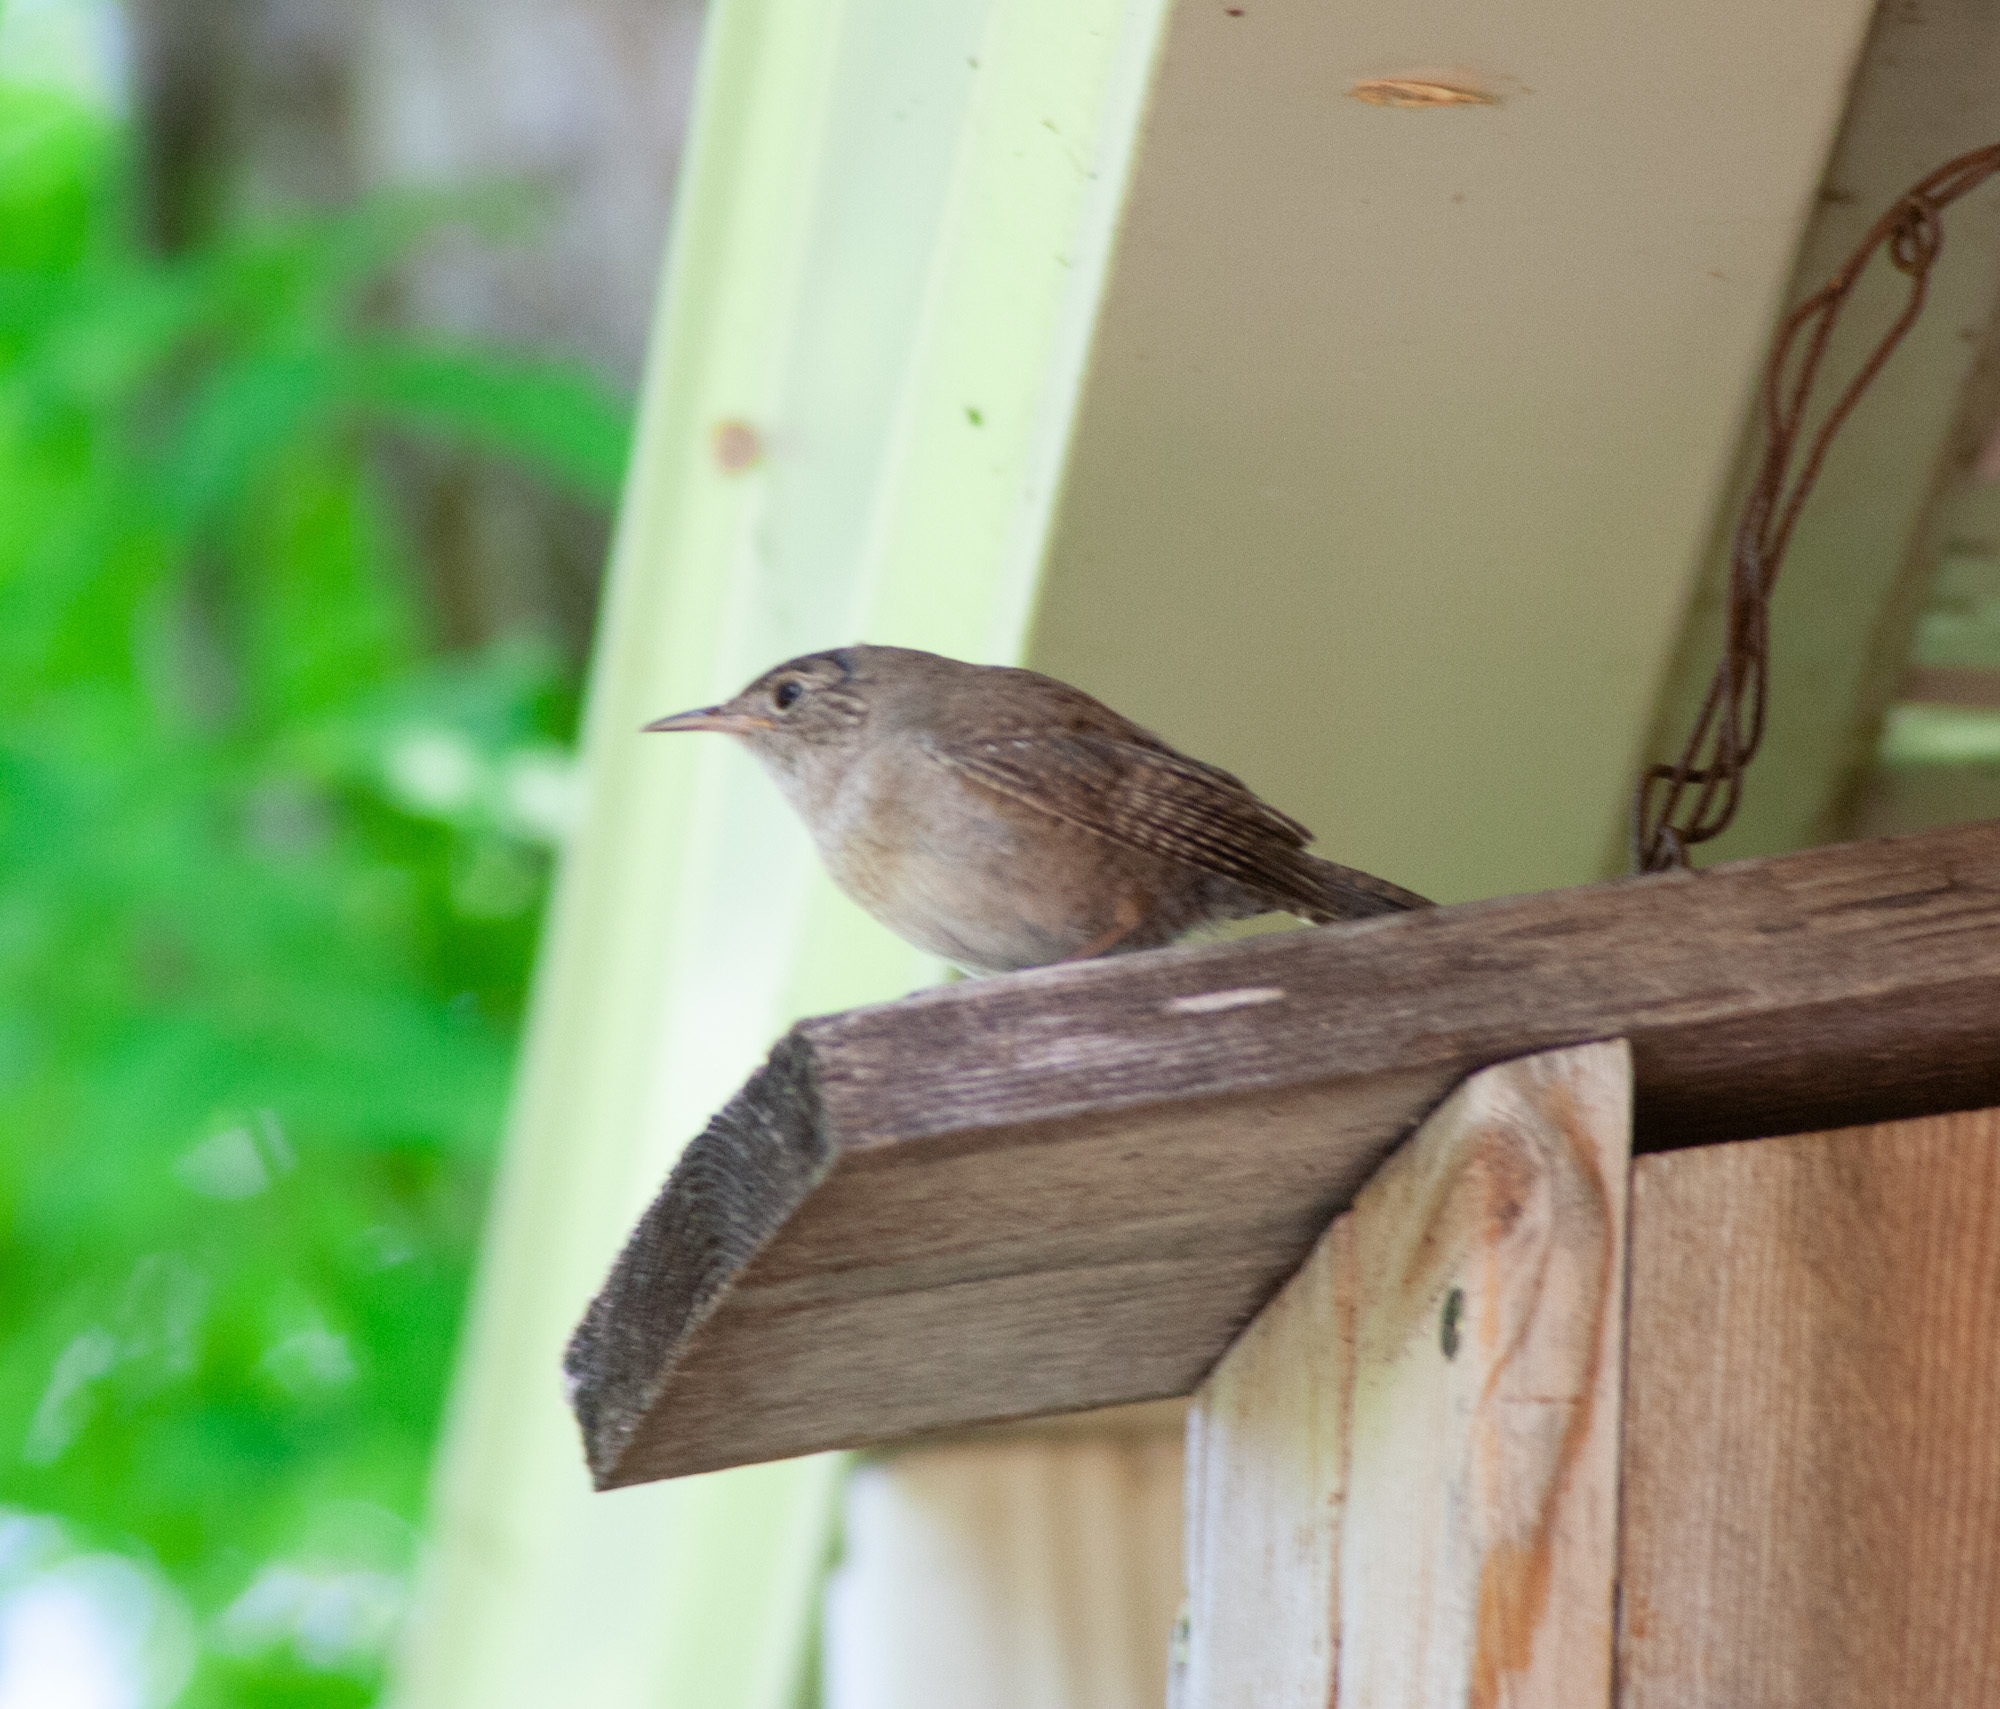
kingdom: Animalia
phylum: Chordata
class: Aves
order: Passeriformes
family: Troglodytidae
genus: Troglodytes
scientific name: Troglodytes aedon
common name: House wren
